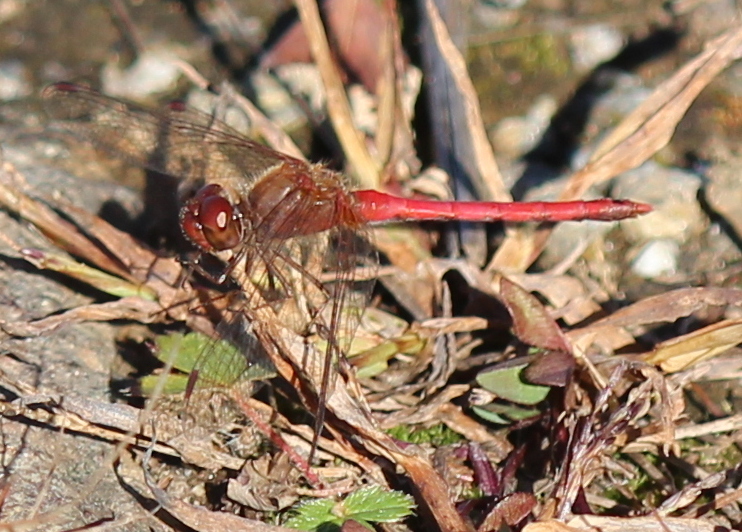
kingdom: Animalia
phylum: Arthropoda
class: Insecta
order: Odonata
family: Libellulidae
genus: Sympetrum
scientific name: Sympetrum vicinum
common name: Autumn meadowhawk
